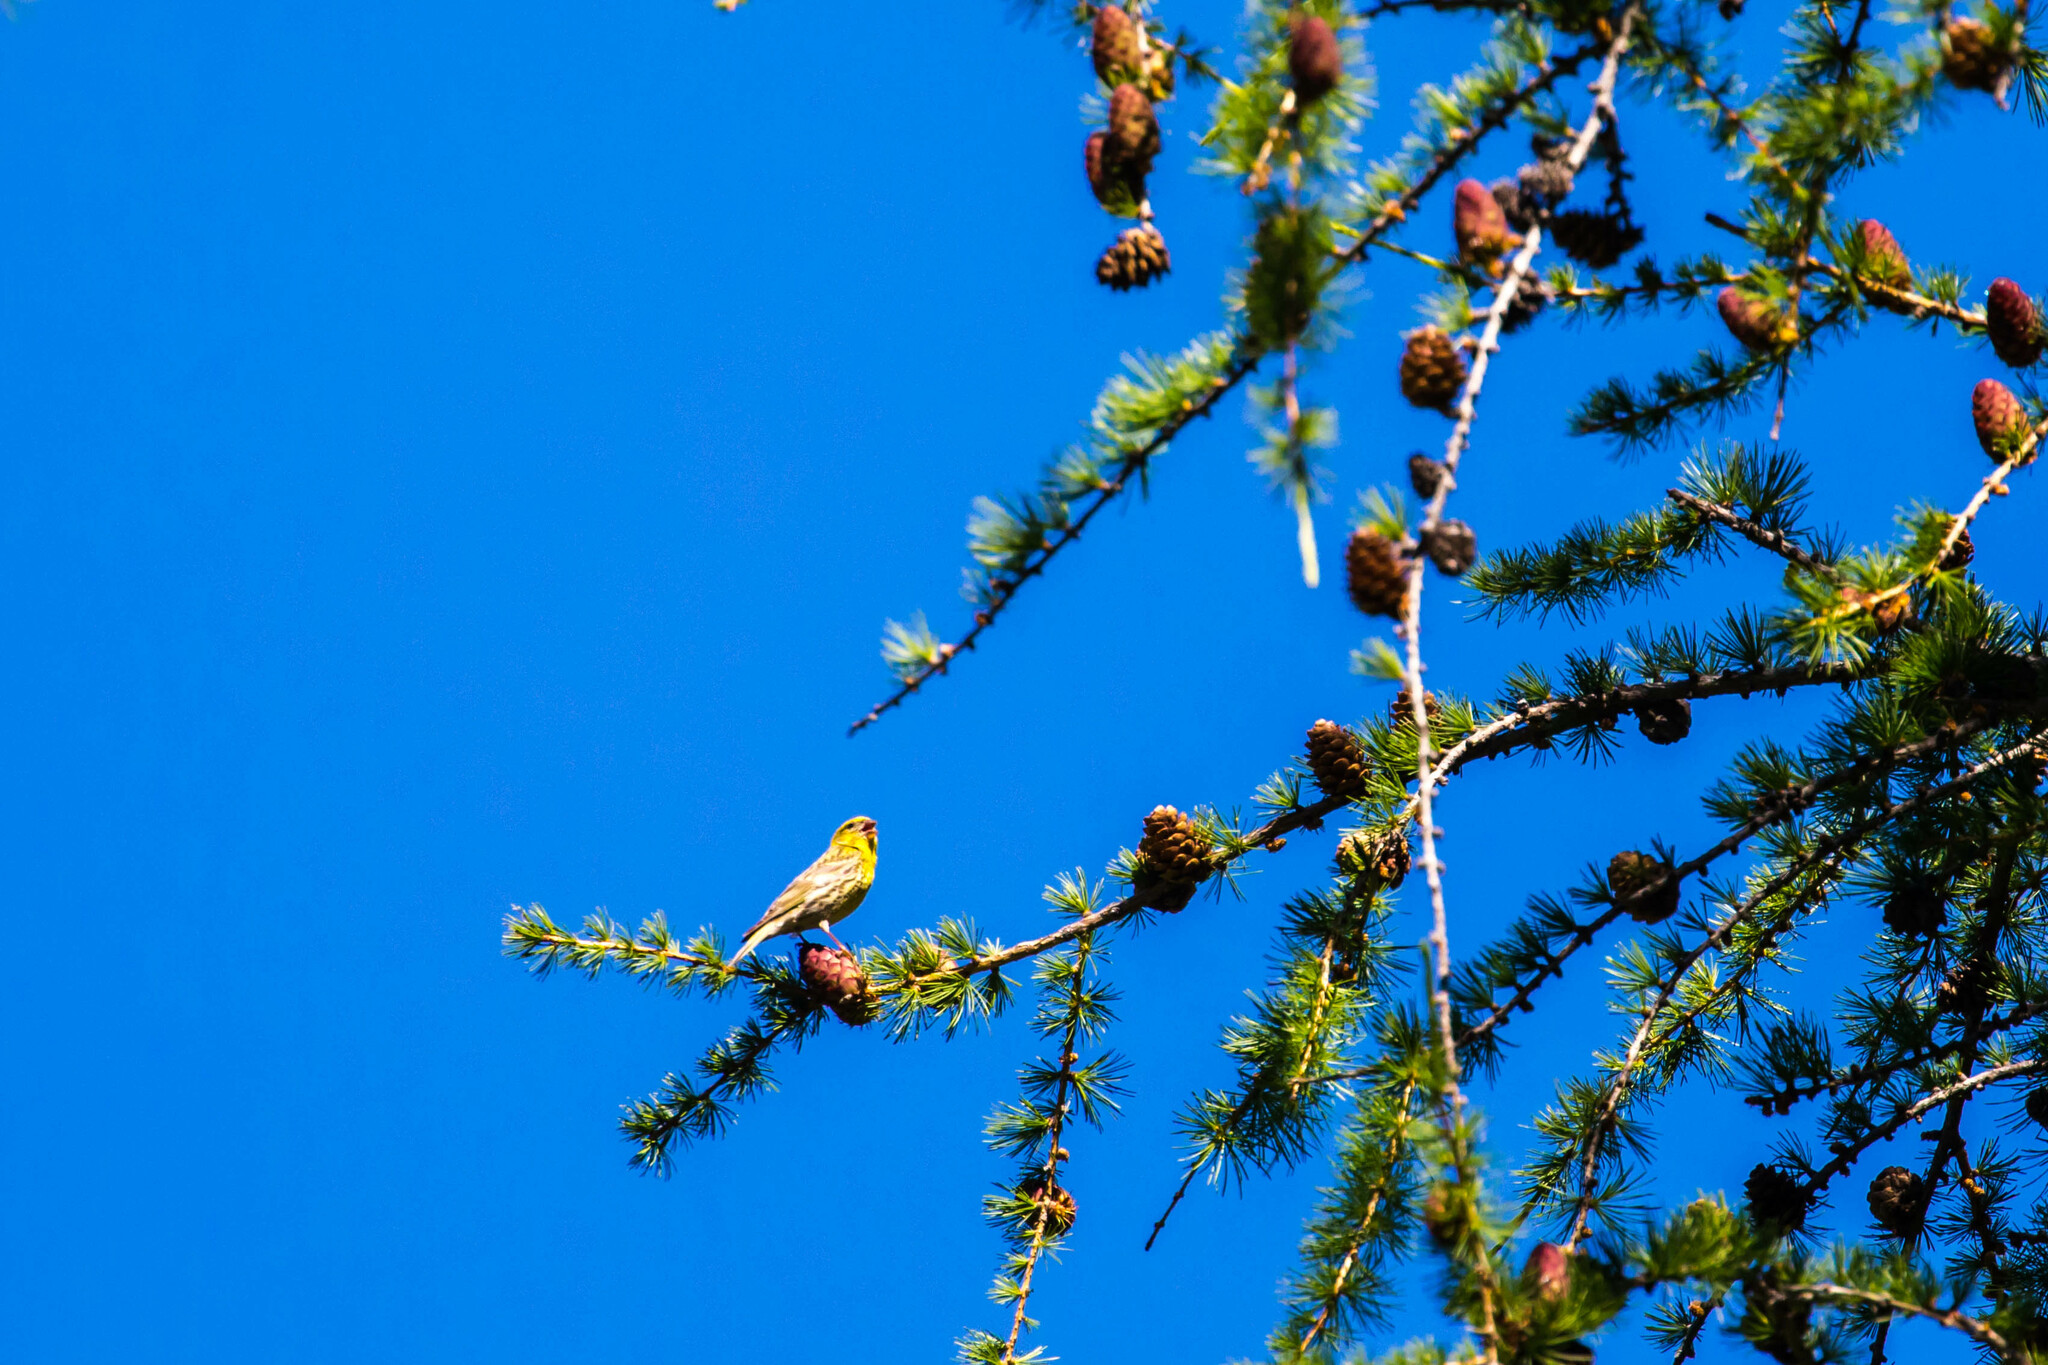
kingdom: Animalia
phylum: Chordata
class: Aves
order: Passeriformes
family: Fringillidae
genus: Serinus
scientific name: Serinus serinus
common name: European serin
